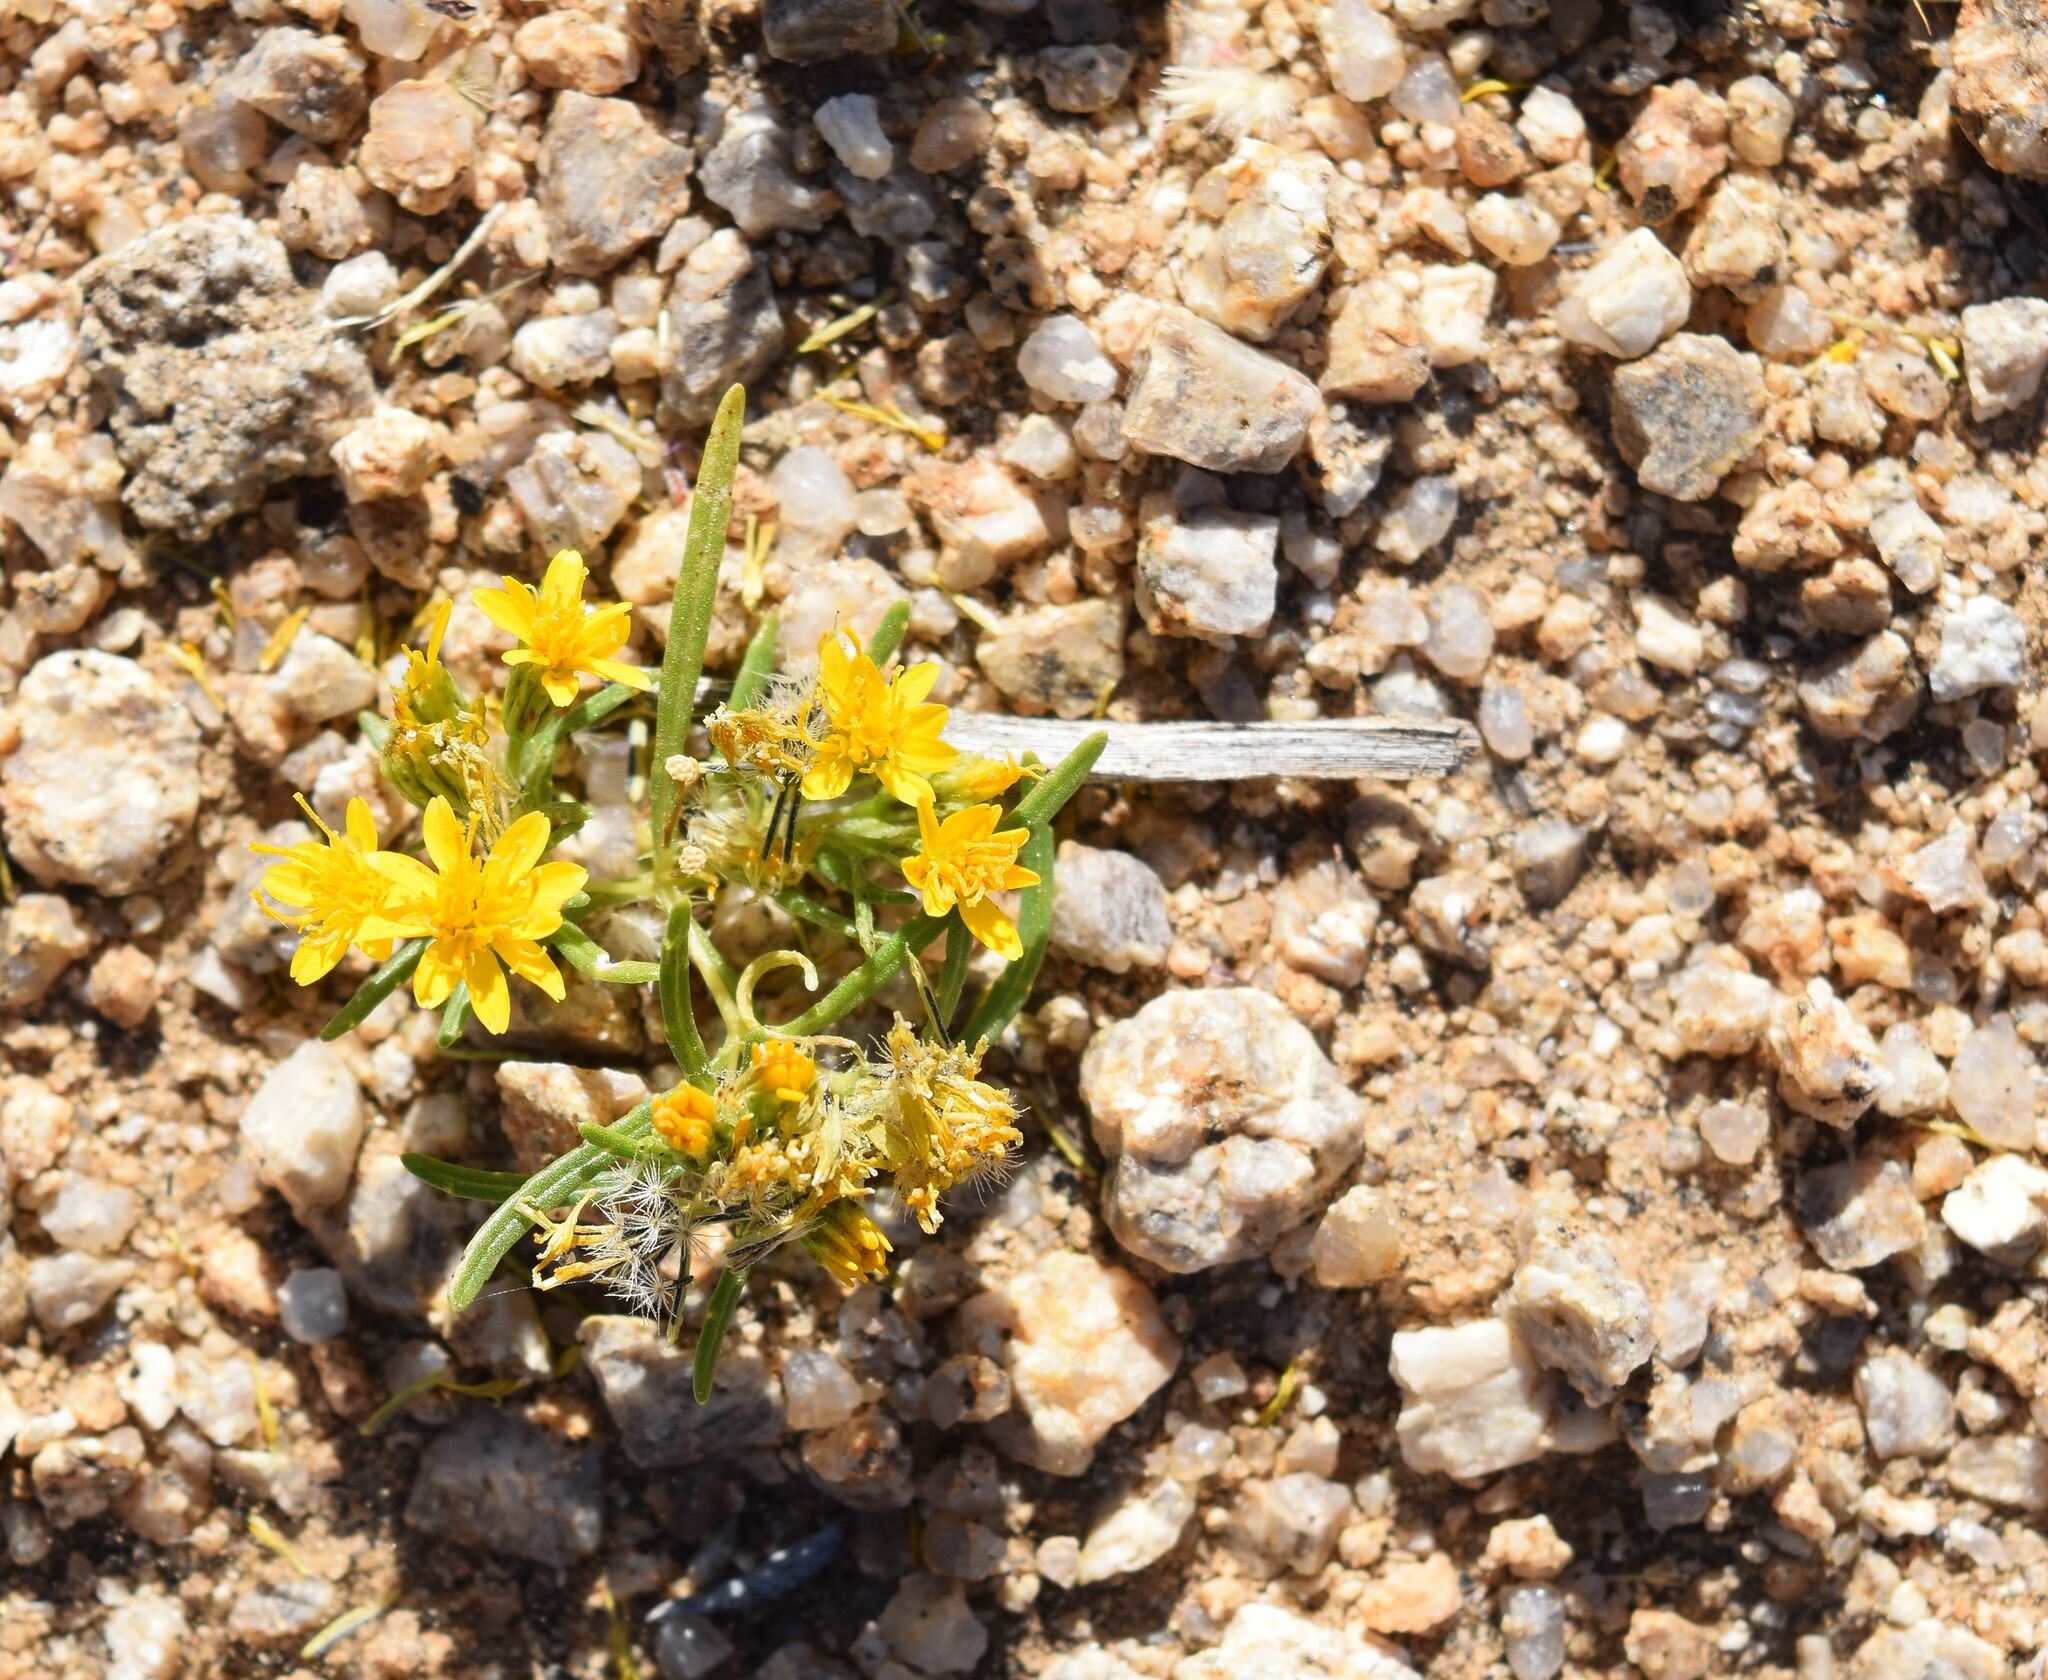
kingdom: Plantae
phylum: Tracheophyta
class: Magnoliopsida
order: Asterales
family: Asteraceae
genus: Pectis
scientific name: Pectis papposa
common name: Many-bristle chinchweed
